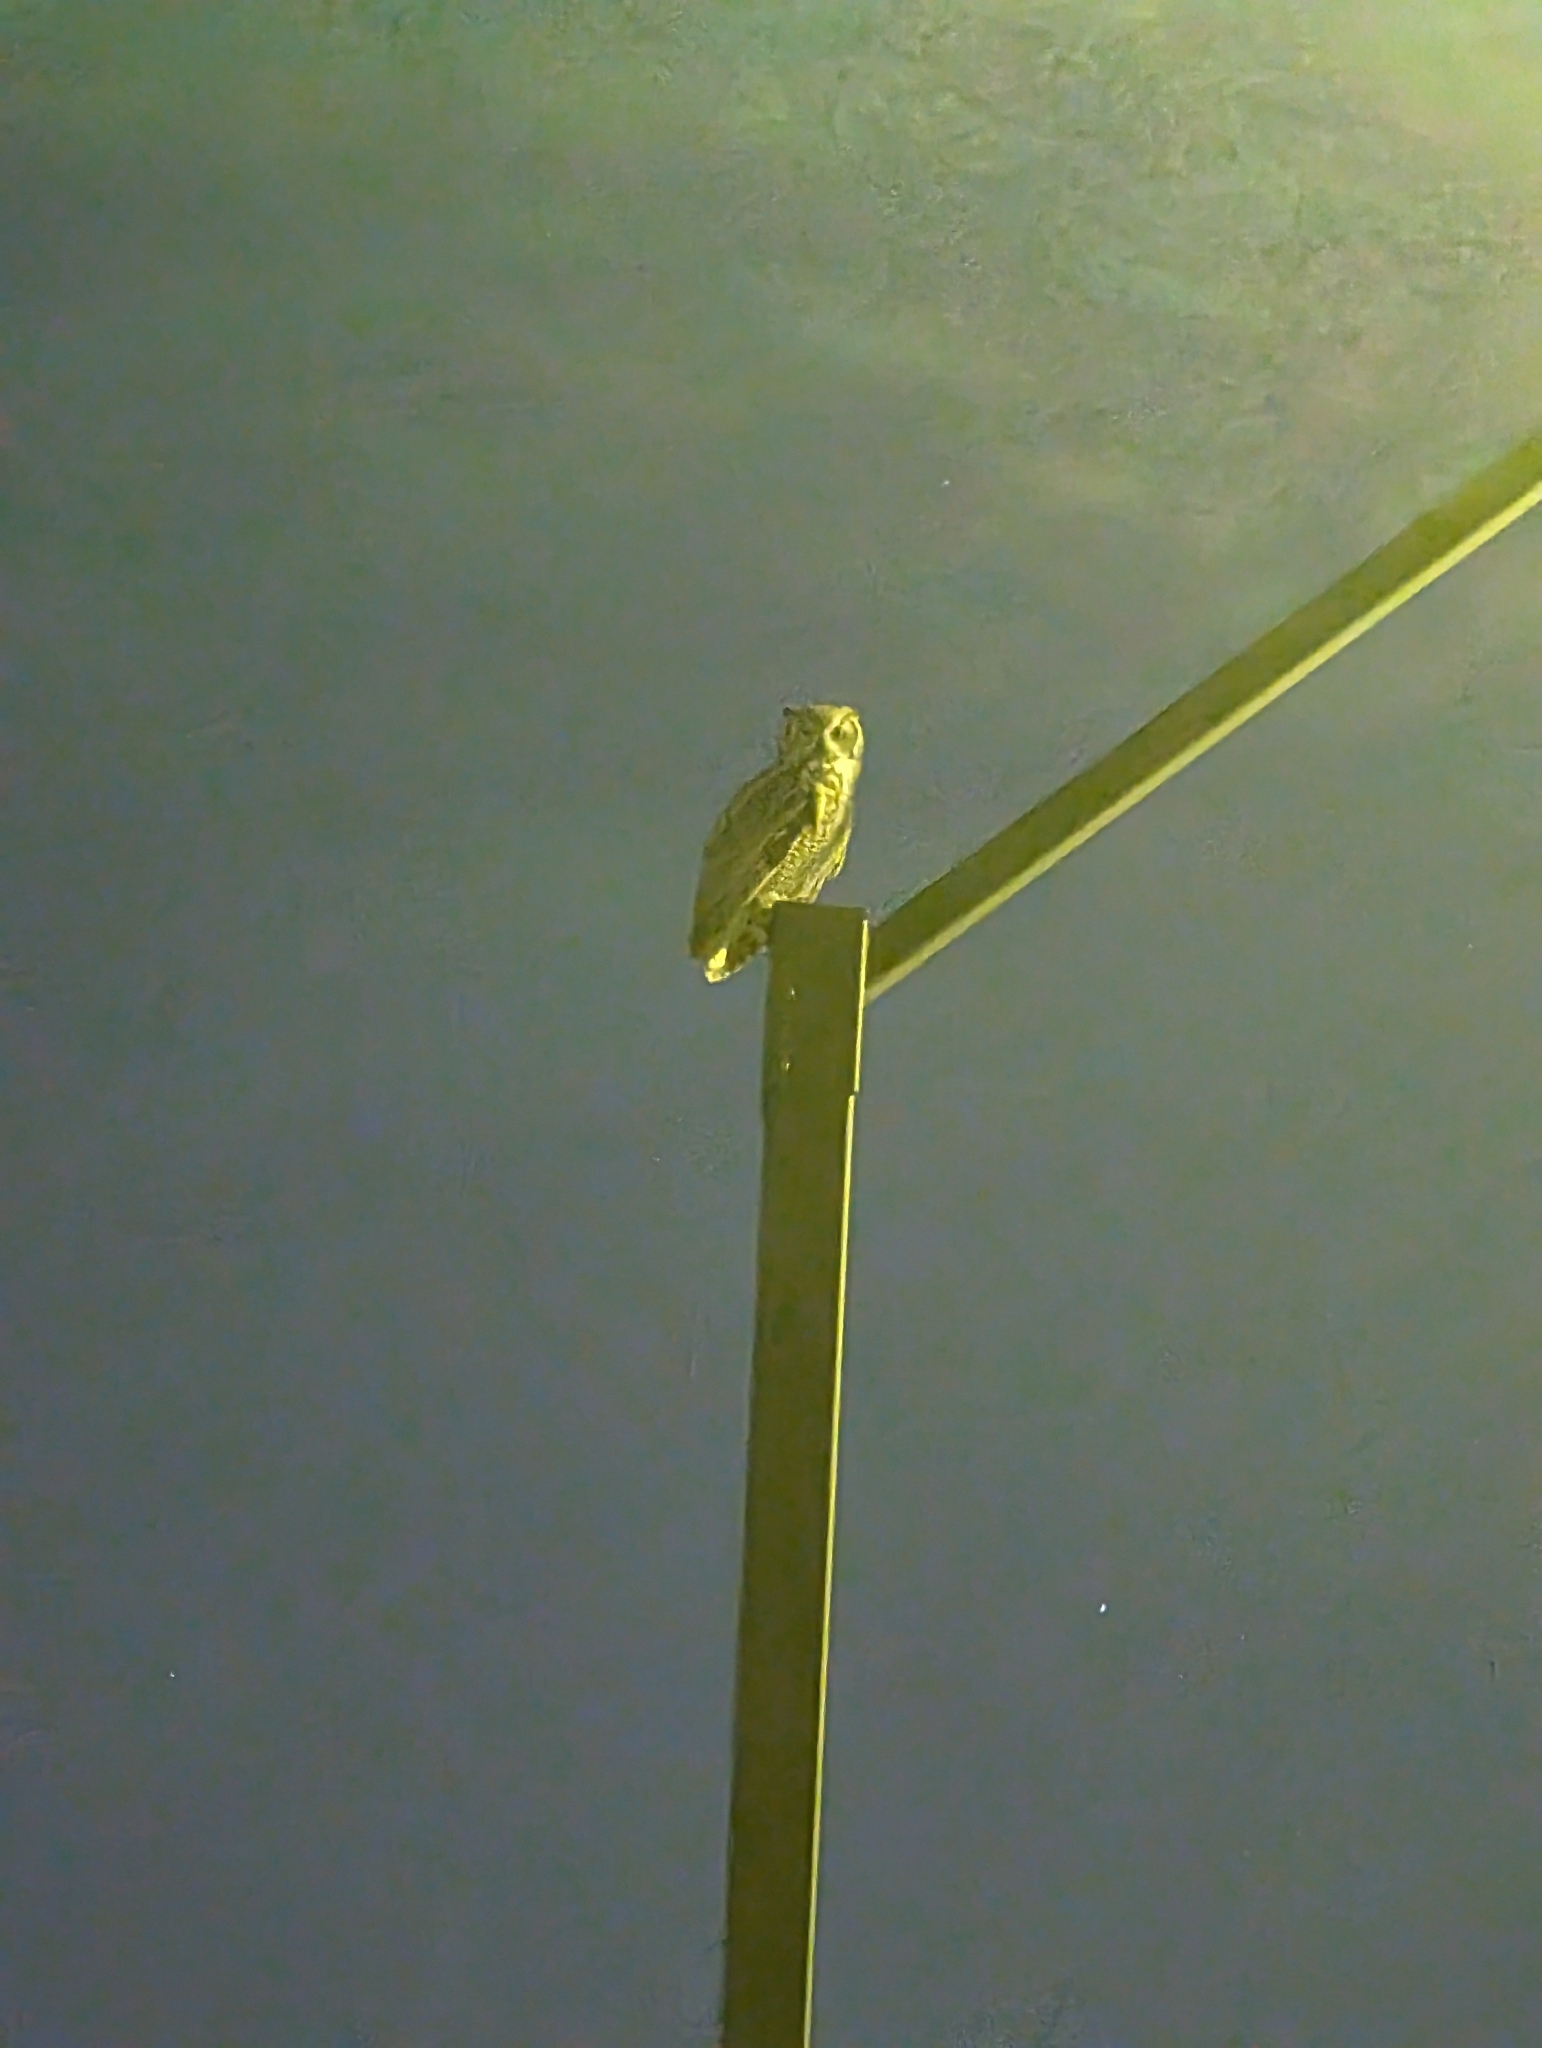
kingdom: Animalia
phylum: Chordata
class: Aves
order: Strigiformes
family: Strigidae
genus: Bubo
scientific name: Bubo virginianus
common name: Great horned owl
